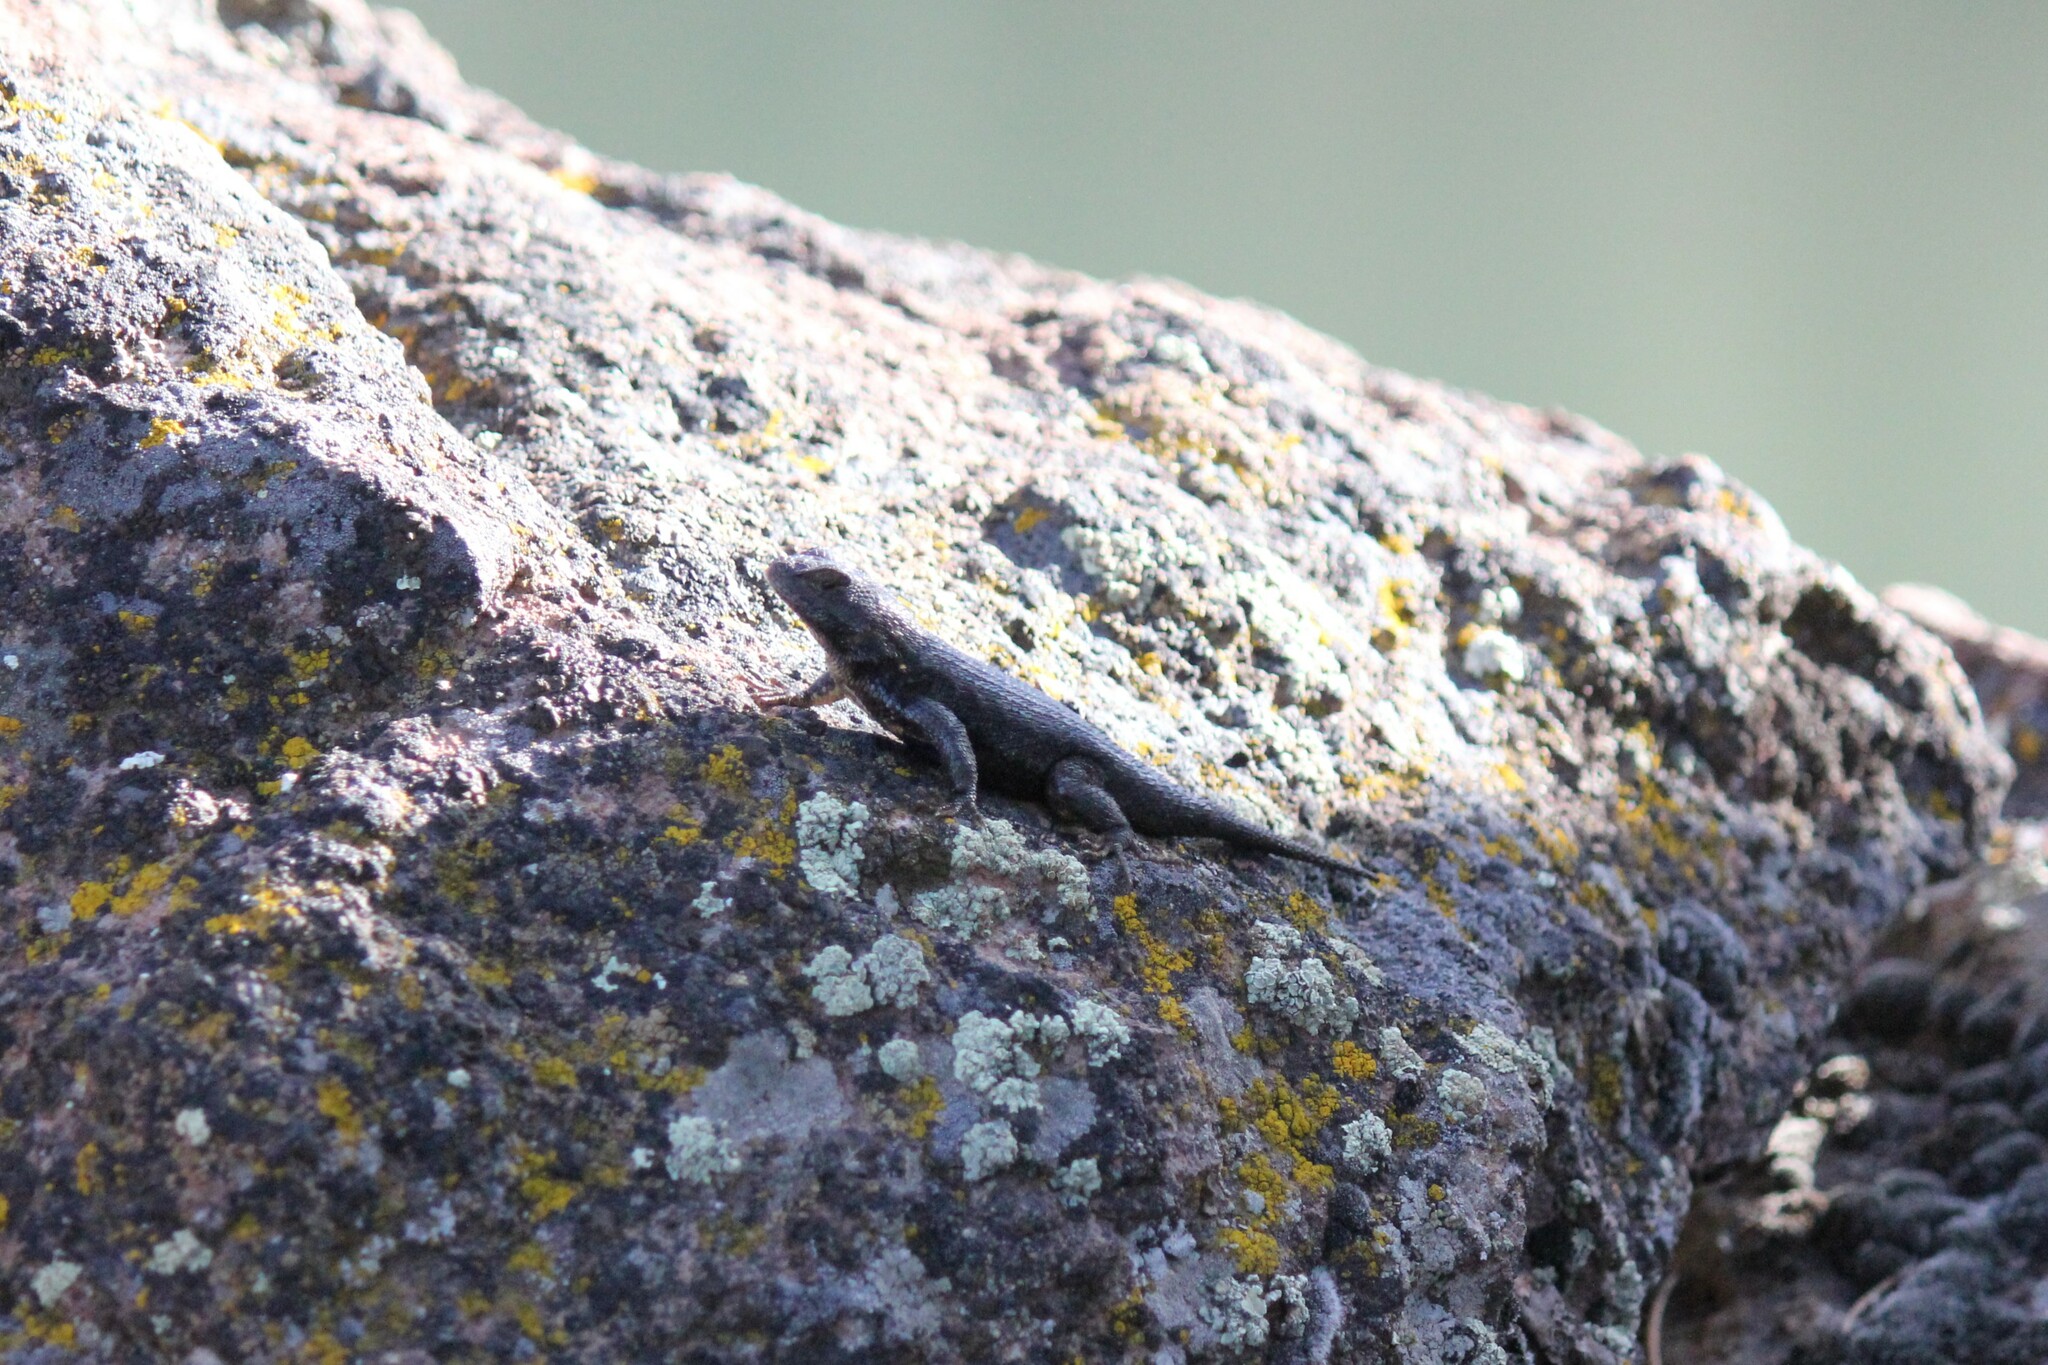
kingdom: Animalia
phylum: Chordata
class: Squamata
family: Phrynosomatidae
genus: Sceloporus
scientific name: Sceloporus occidentalis
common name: Western fence lizard
